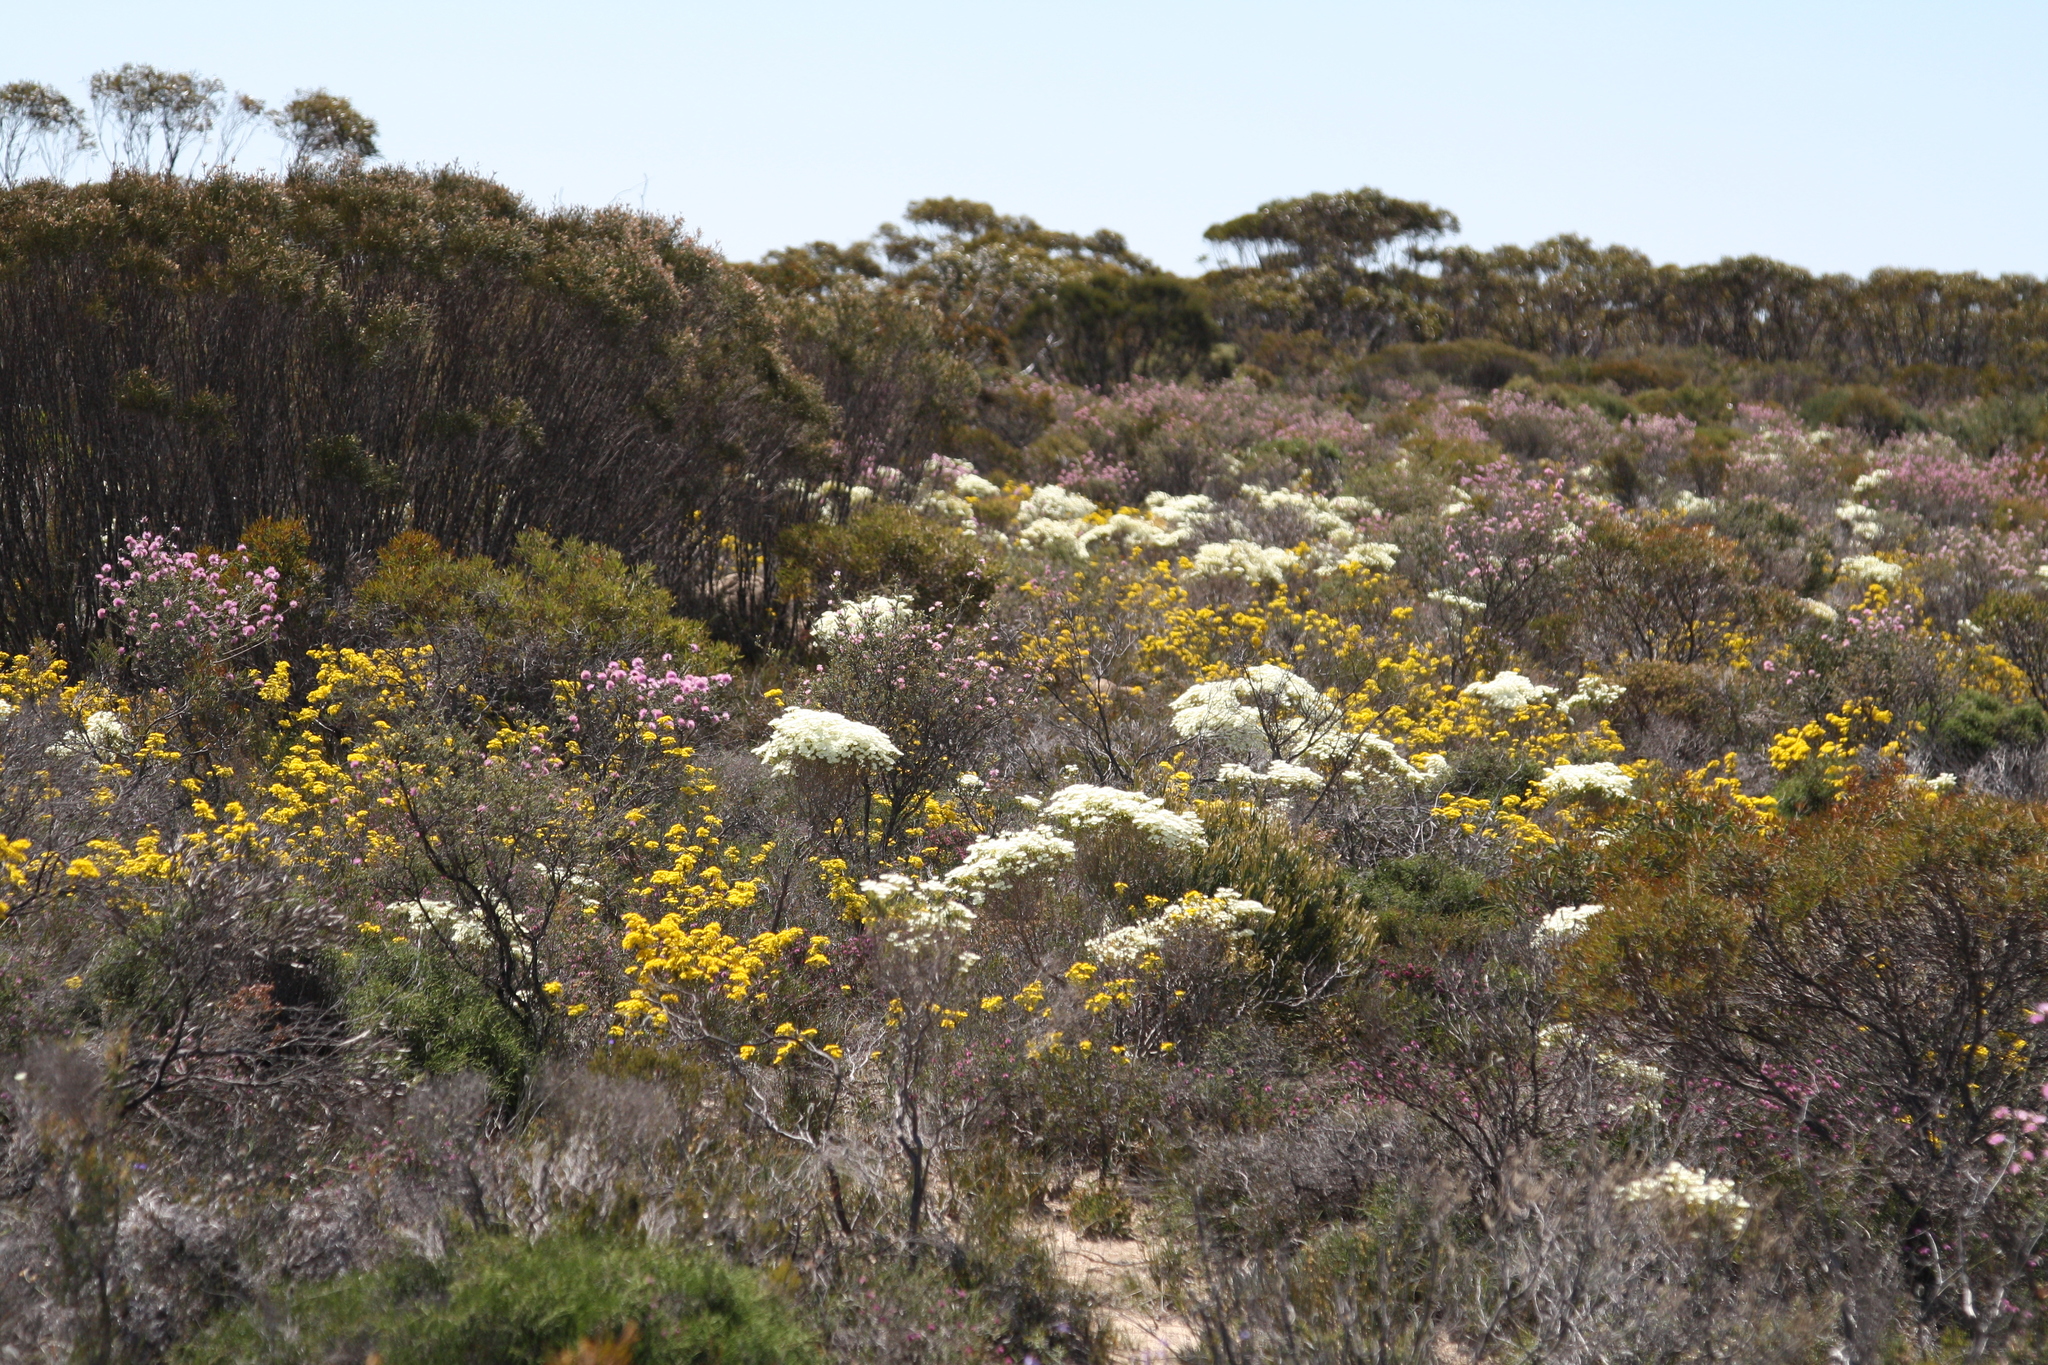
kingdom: Plantae
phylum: Tracheophyta
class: Magnoliopsida
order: Myrtales
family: Myrtaceae
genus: Verticordia
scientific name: Verticordia roei
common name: Roe's feather-flower
